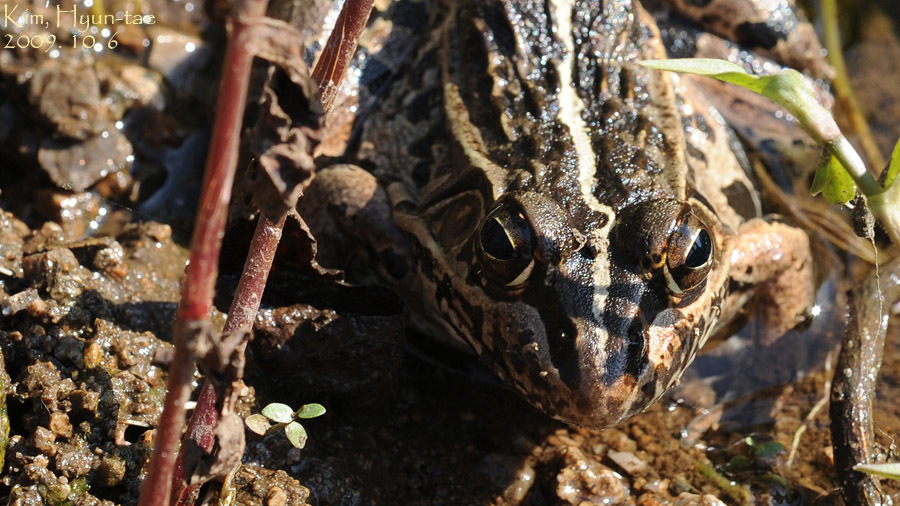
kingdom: Animalia
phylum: Chordata
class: Amphibia
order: Anura
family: Ranidae
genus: Pelophylax
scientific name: Pelophylax nigromaculatus
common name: Black-spotted pond frog
